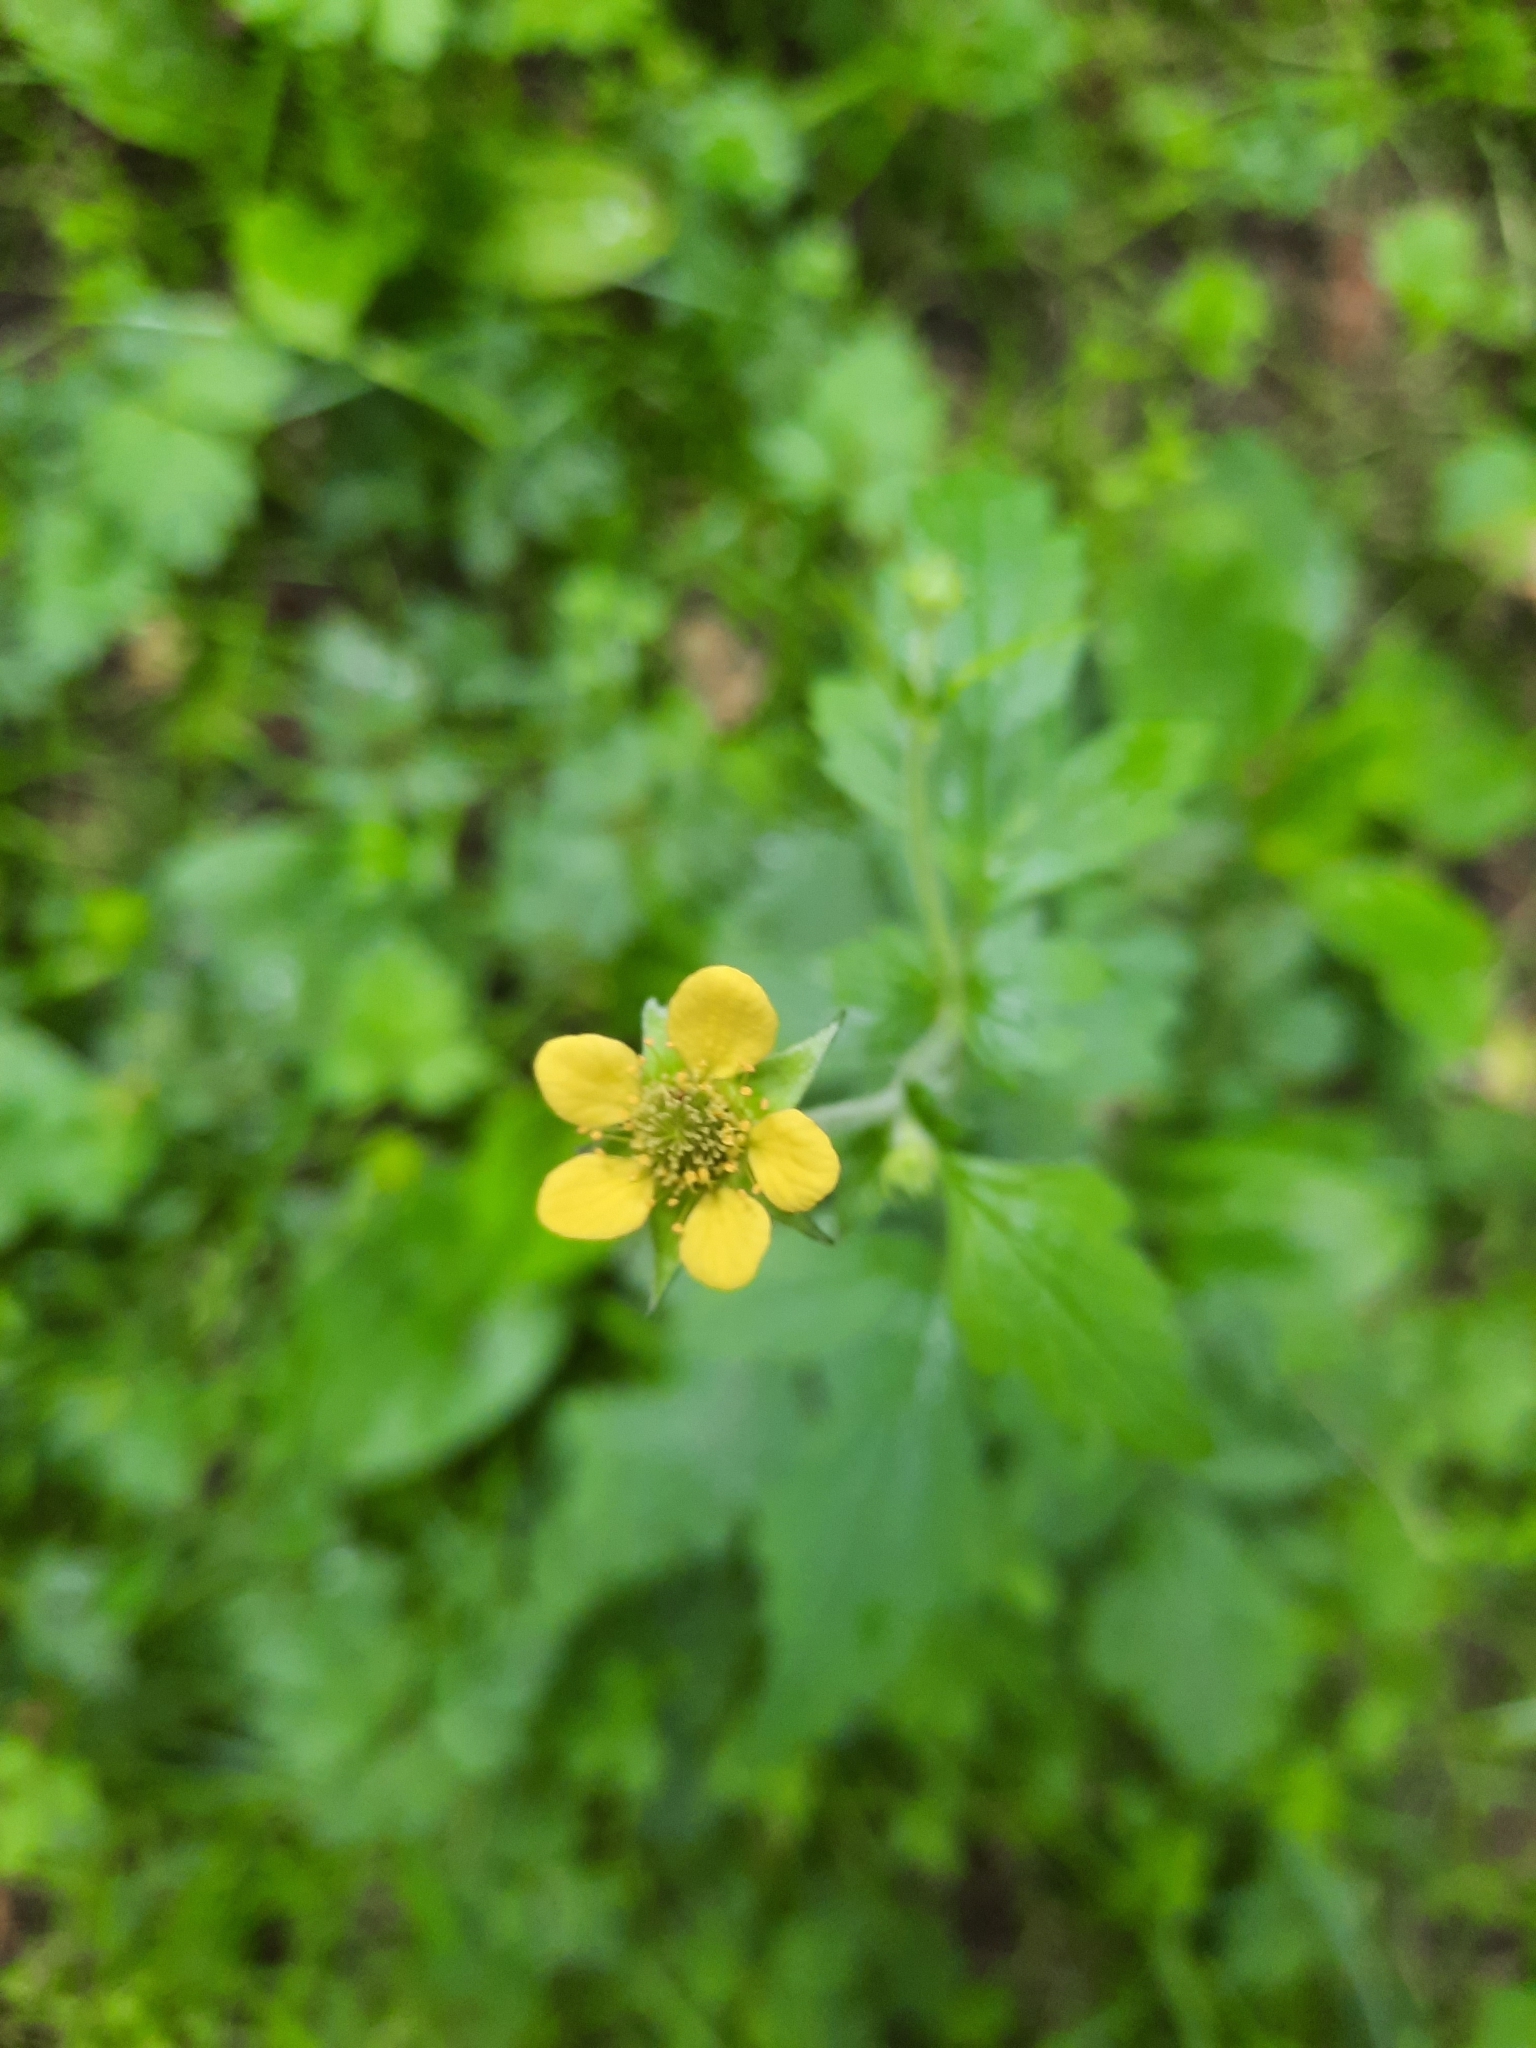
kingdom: Plantae
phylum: Tracheophyta
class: Magnoliopsida
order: Rosales
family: Rosaceae
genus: Geum
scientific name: Geum urbanum
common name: Wood avens
